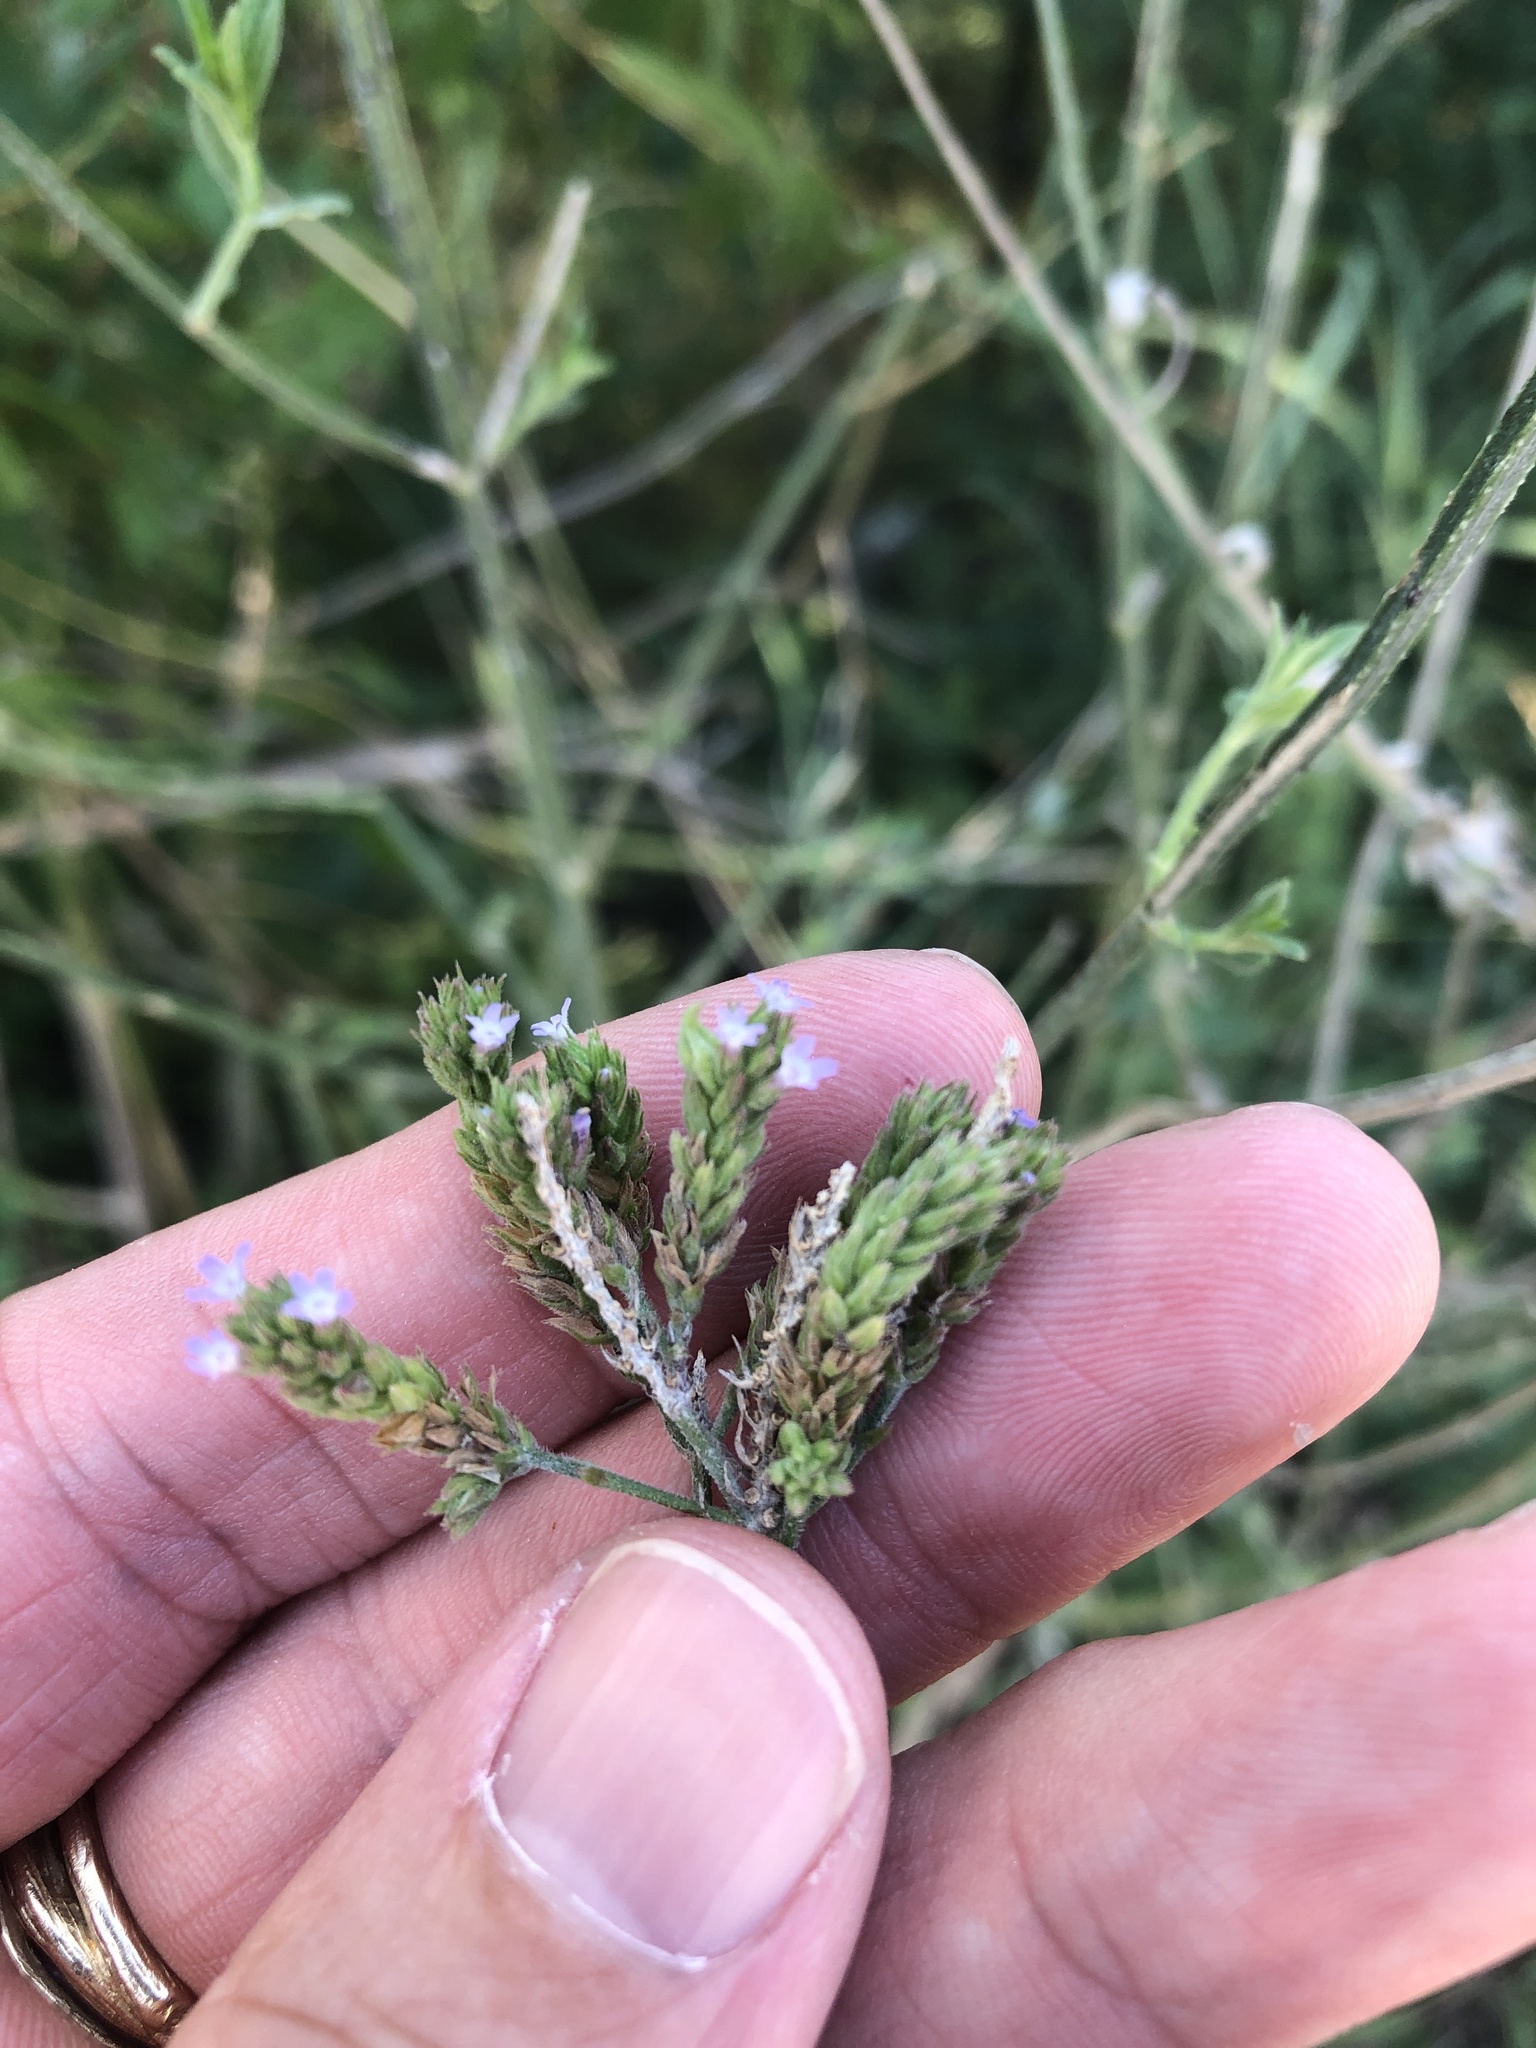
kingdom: Plantae
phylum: Tracheophyta
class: Magnoliopsida
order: Lamiales
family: Verbenaceae
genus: Verbena
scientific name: Verbena brasiliensis
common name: Brazilian vervain
